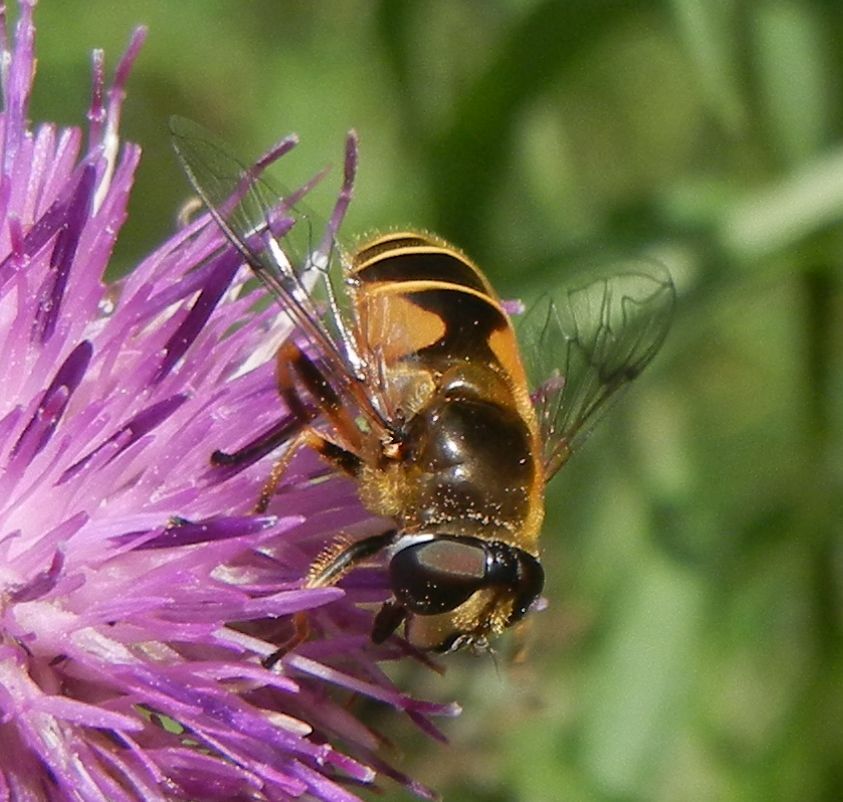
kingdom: Animalia
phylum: Arthropoda
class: Insecta
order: Diptera
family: Syrphidae
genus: Cheilosia
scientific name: Cheilosia morio
